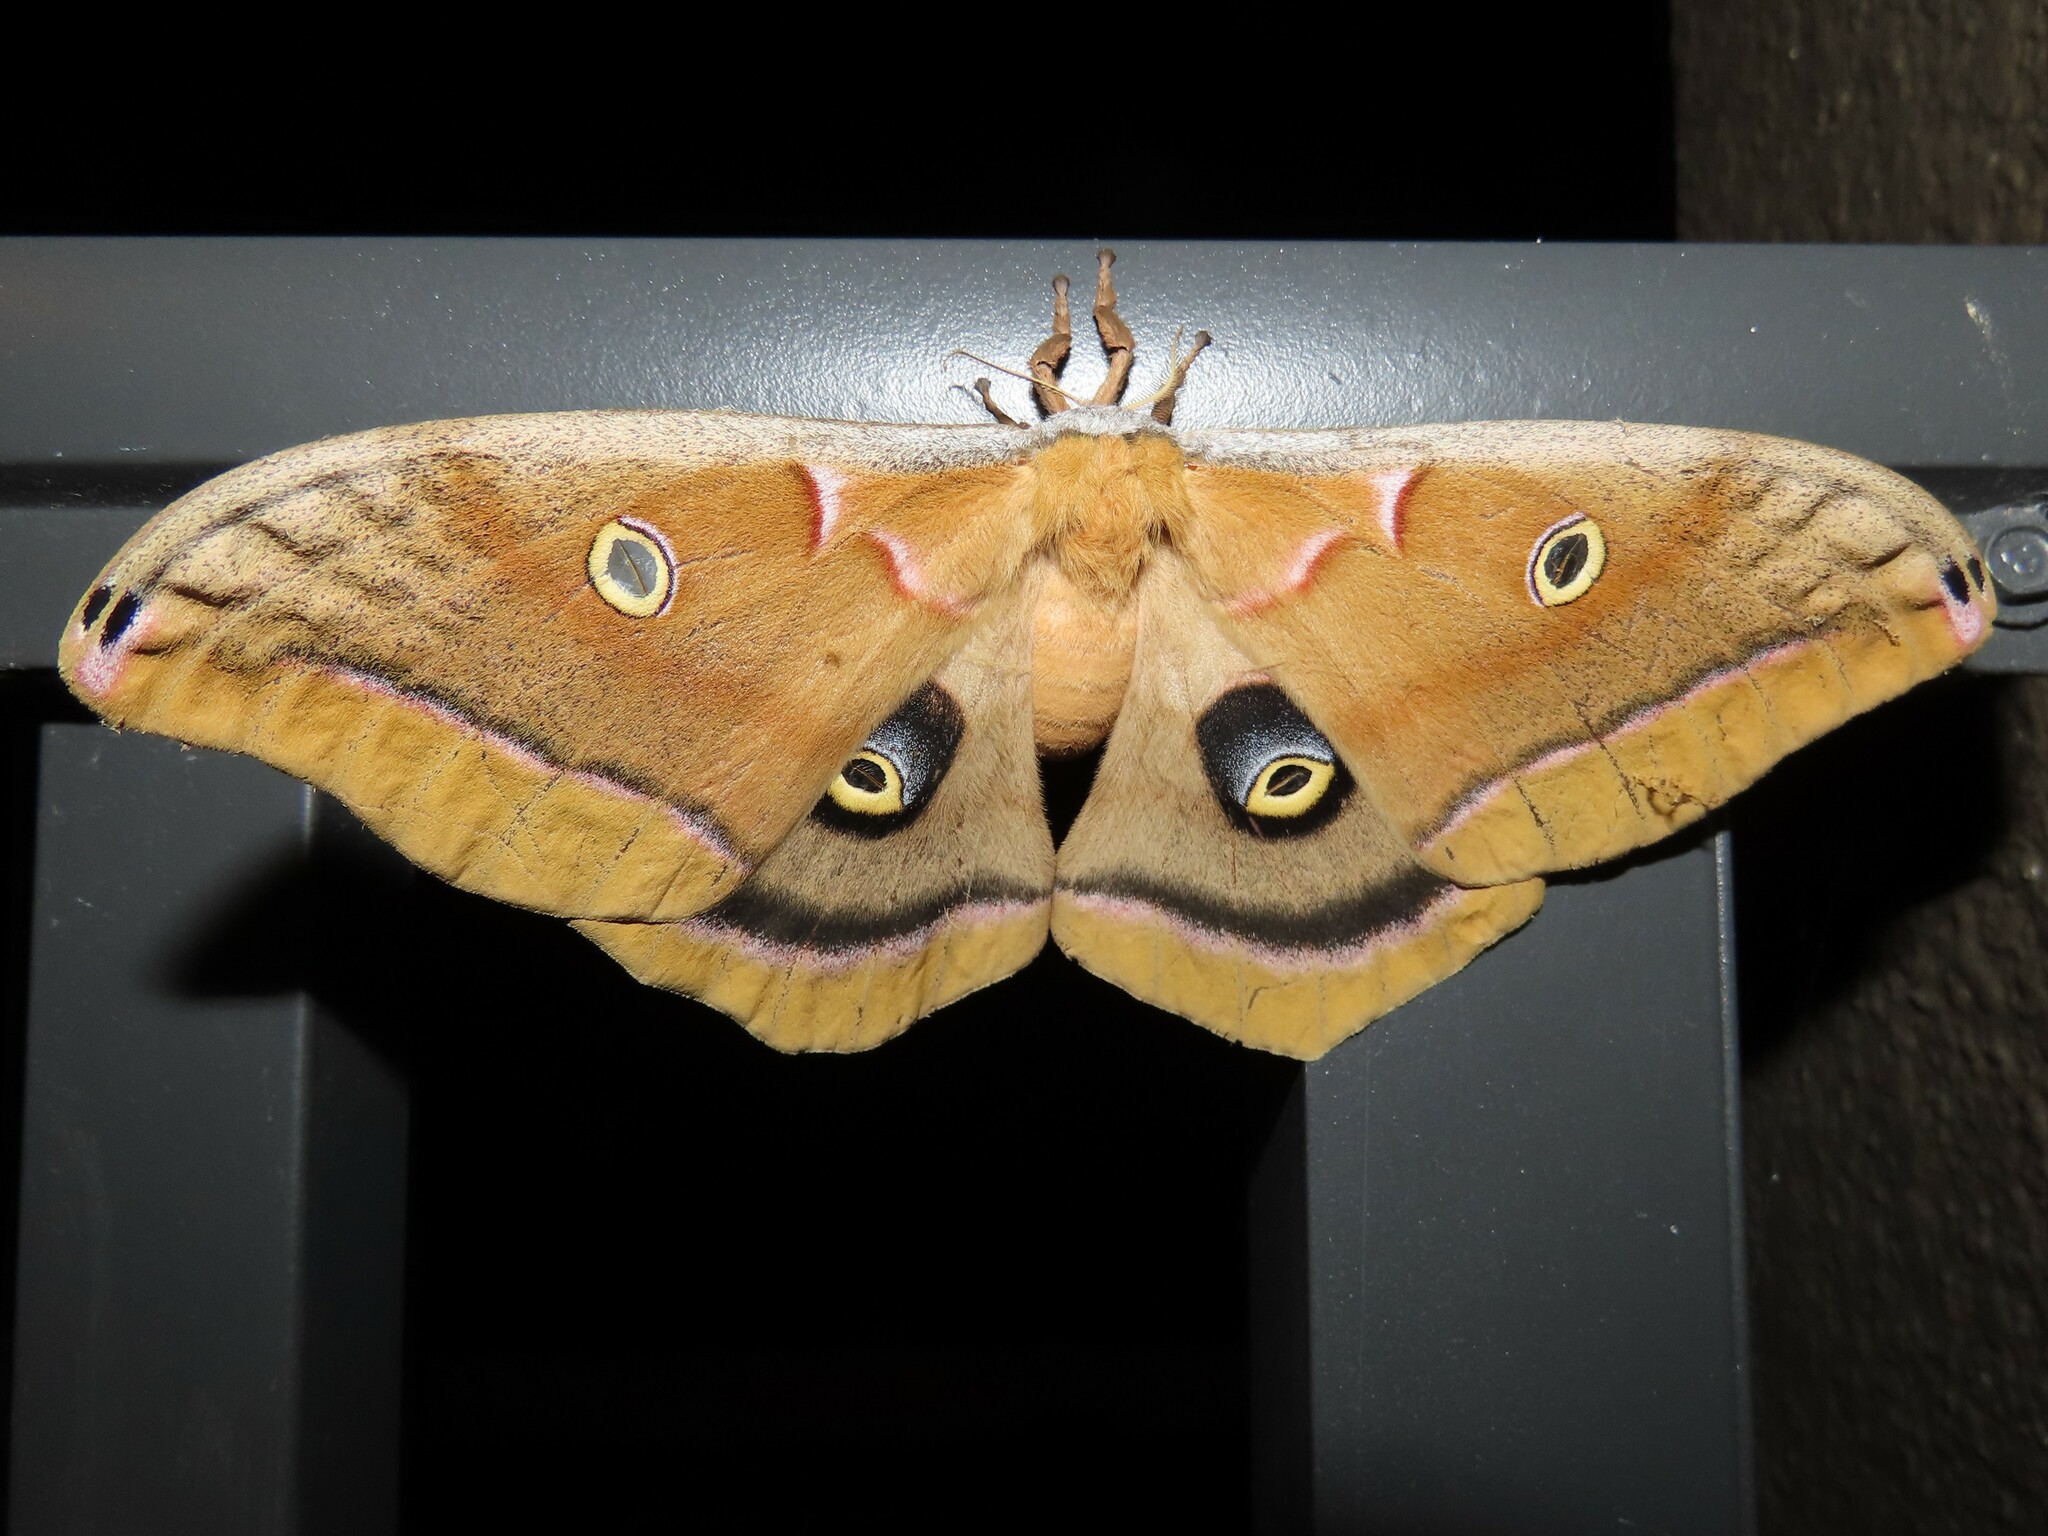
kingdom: Animalia
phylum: Arthropoda
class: Insecta
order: Lepidoptera
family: Saturniidae
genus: Antheraea
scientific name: Antheraea polyphemus
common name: Polyphemus moth
